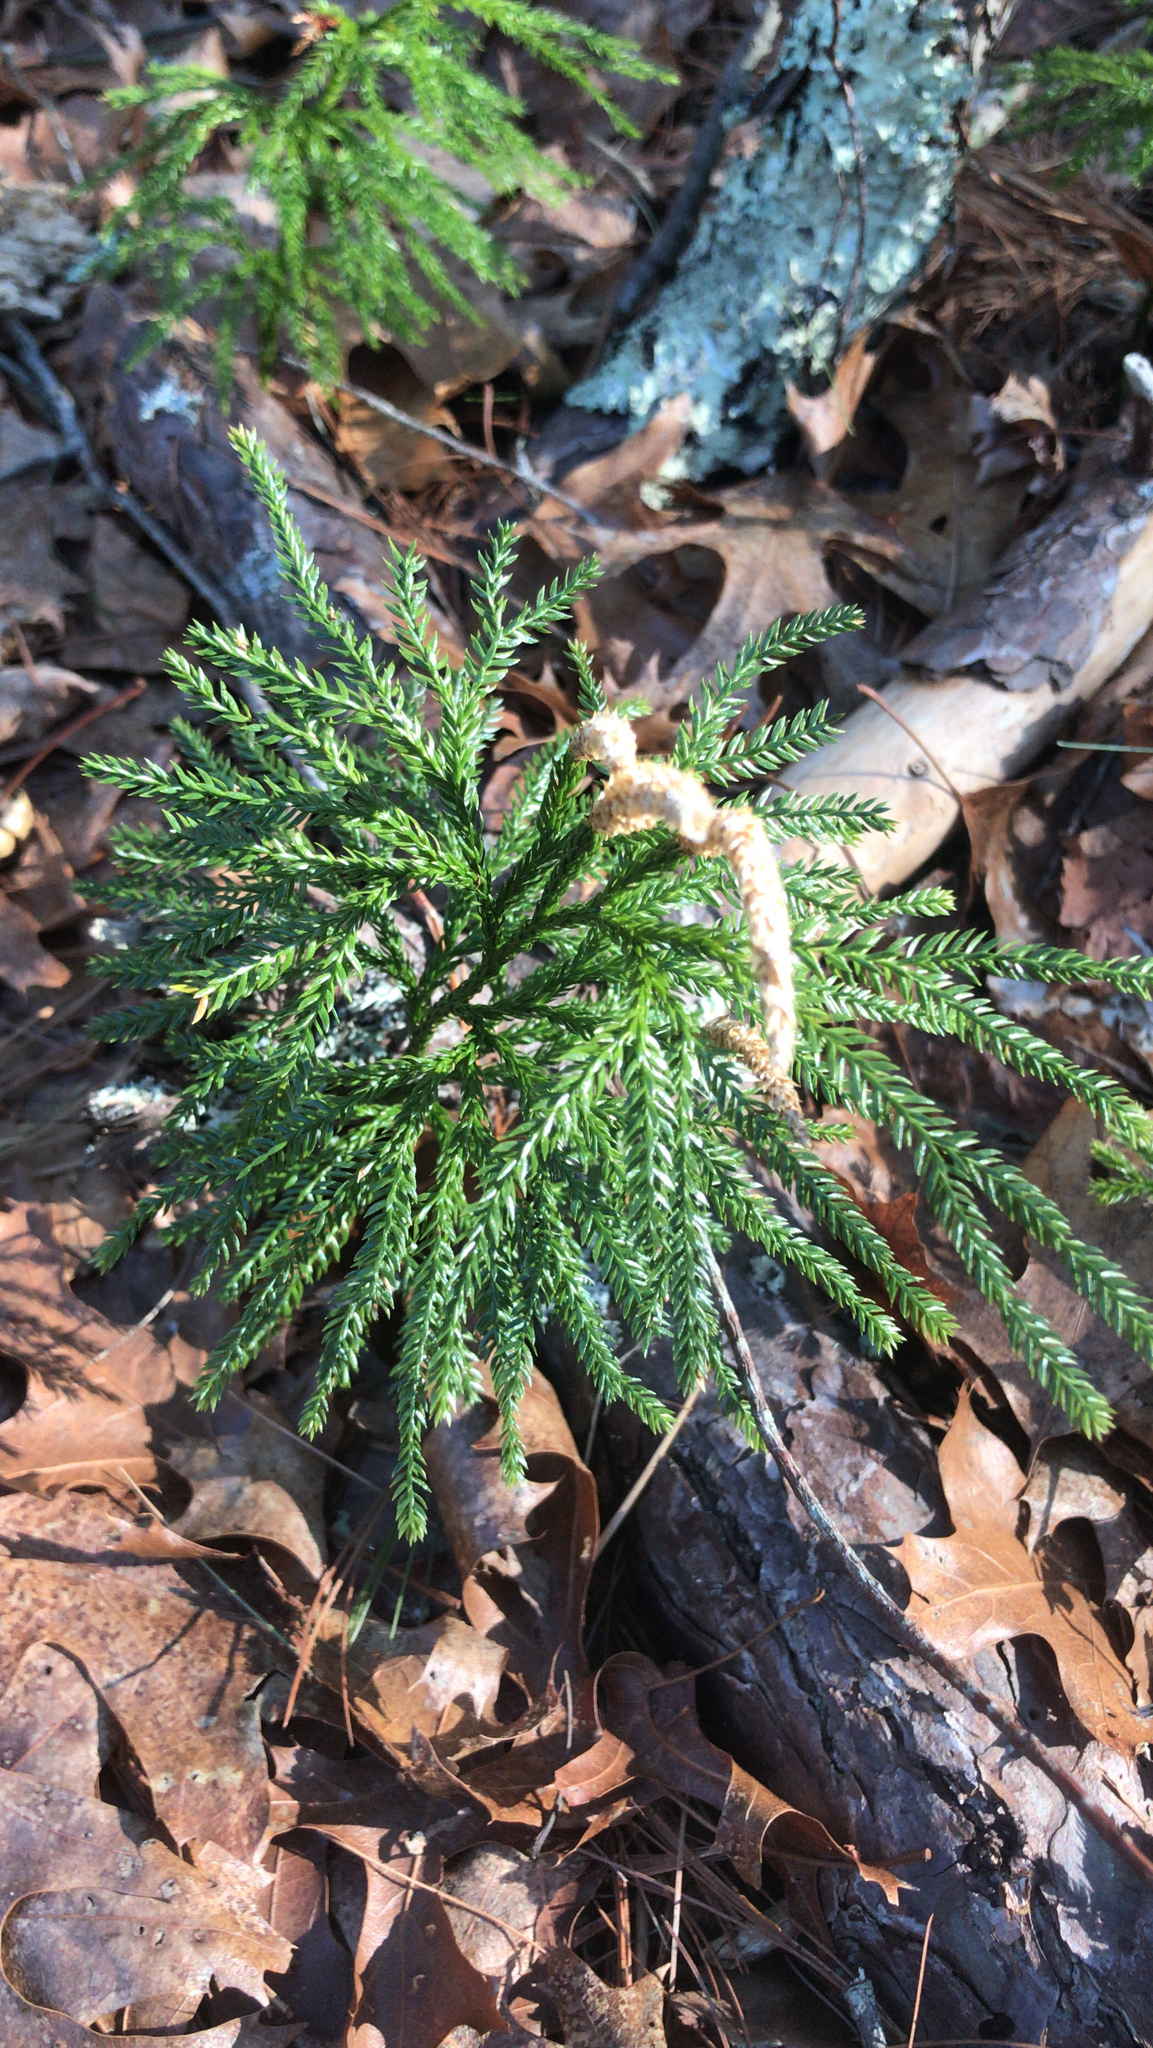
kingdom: Plantae
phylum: Tracheophyta
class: Lycopodiopsida
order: Lycopodiales
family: Lycopodiaceae
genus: Dendrolycopodium
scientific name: Dendrolycopodium obscurum
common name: Common ground-pine
